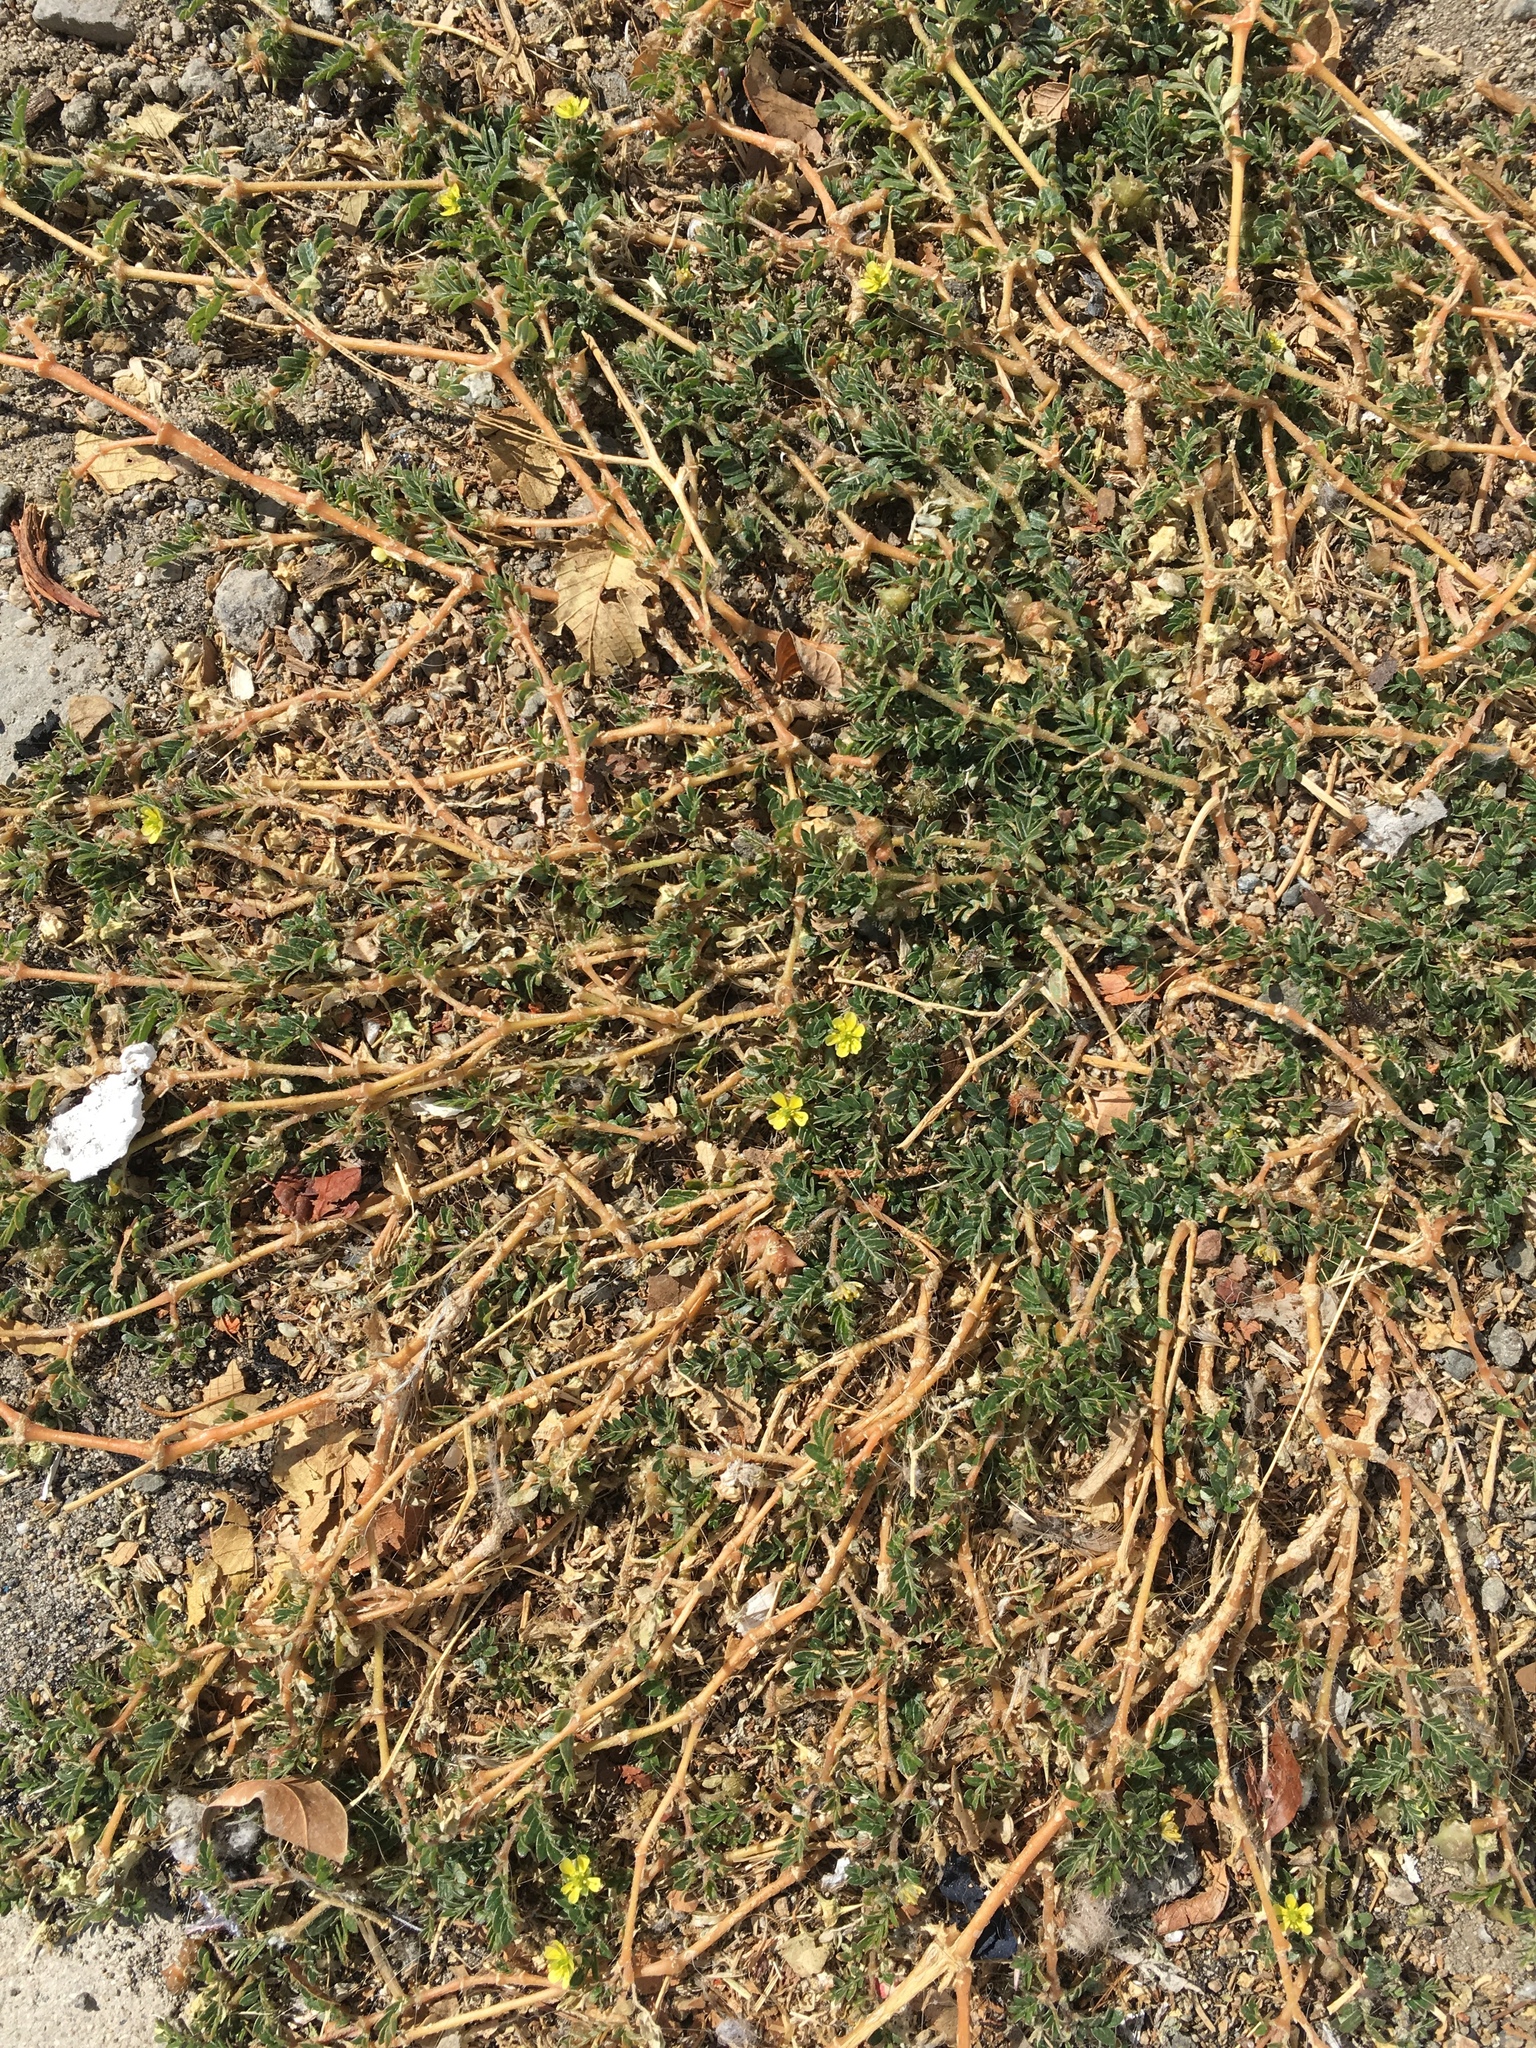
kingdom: Plantae
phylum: Tracheophyta
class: Magnoliopsida
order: Zygophyllales
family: Zygophyllaceae
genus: Tribulus
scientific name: Tribulus terrestris
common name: Puncturevine
